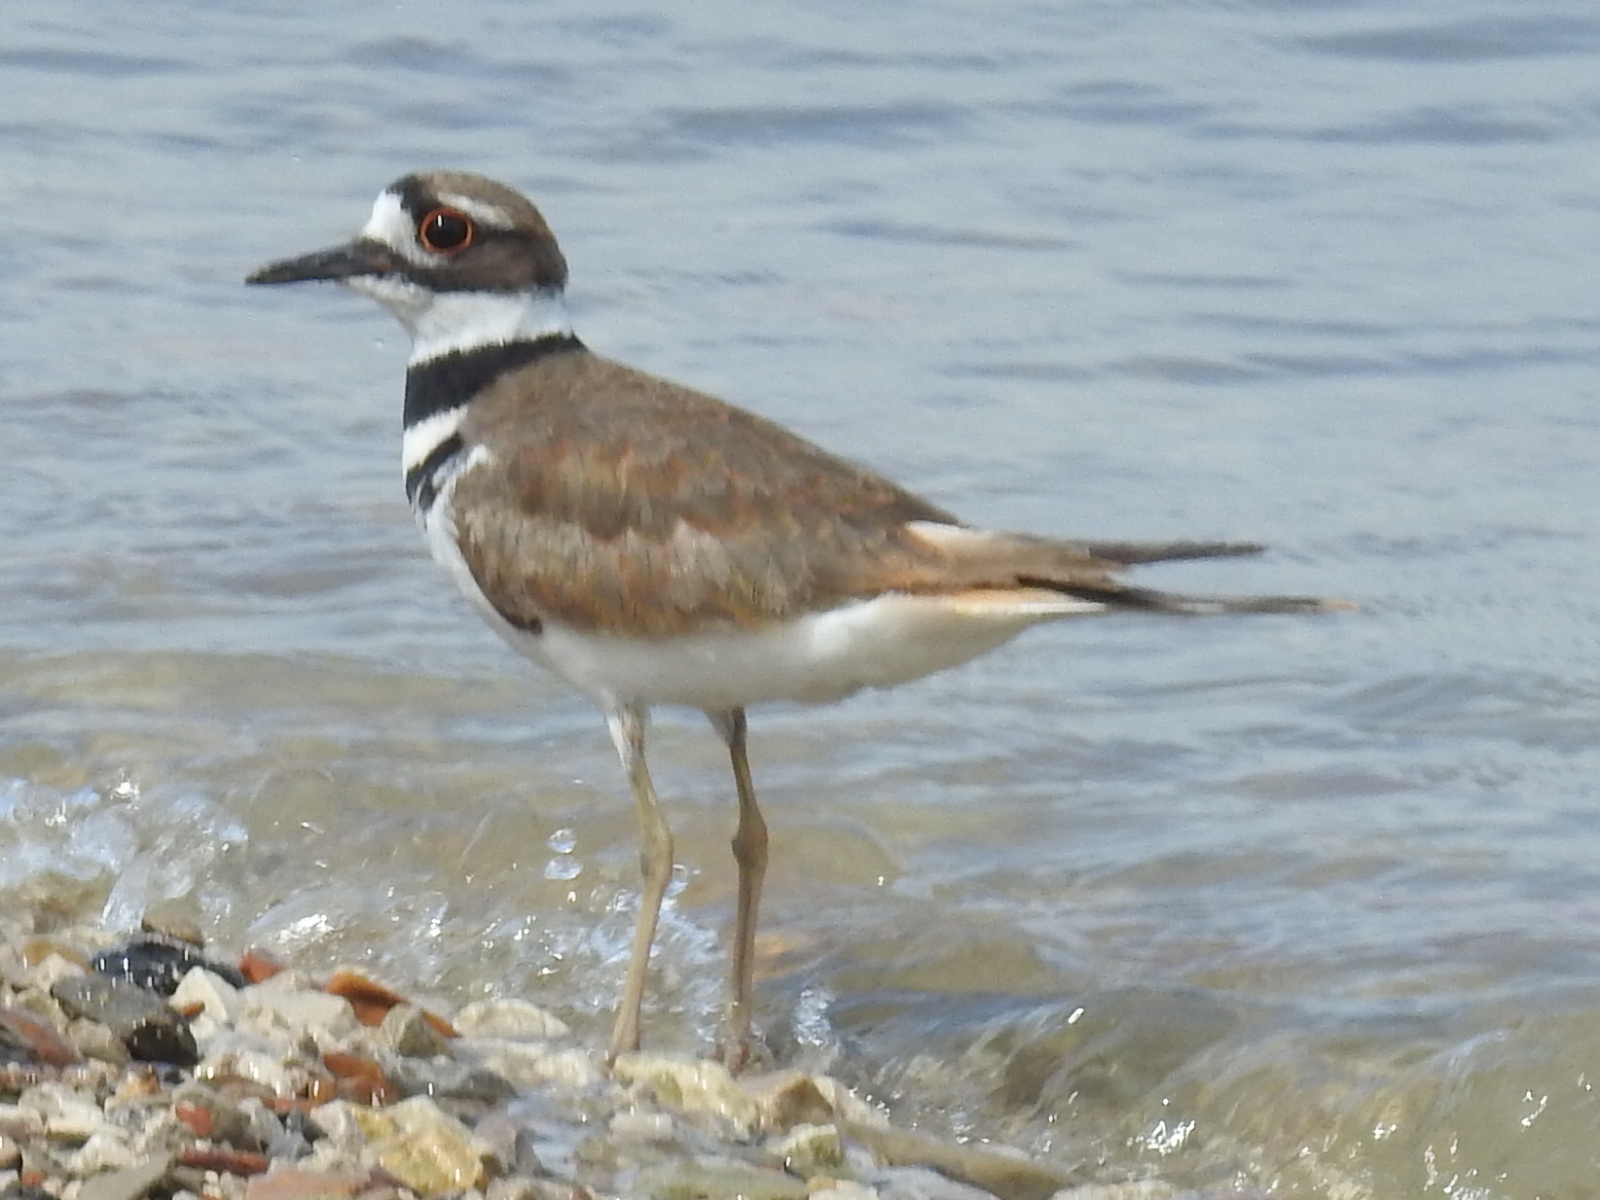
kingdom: Animalia
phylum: Chordata
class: Aves
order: Charadriiformes
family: Charadriidae
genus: Charadrius
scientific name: Charadrius vociferus
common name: Killdeer
